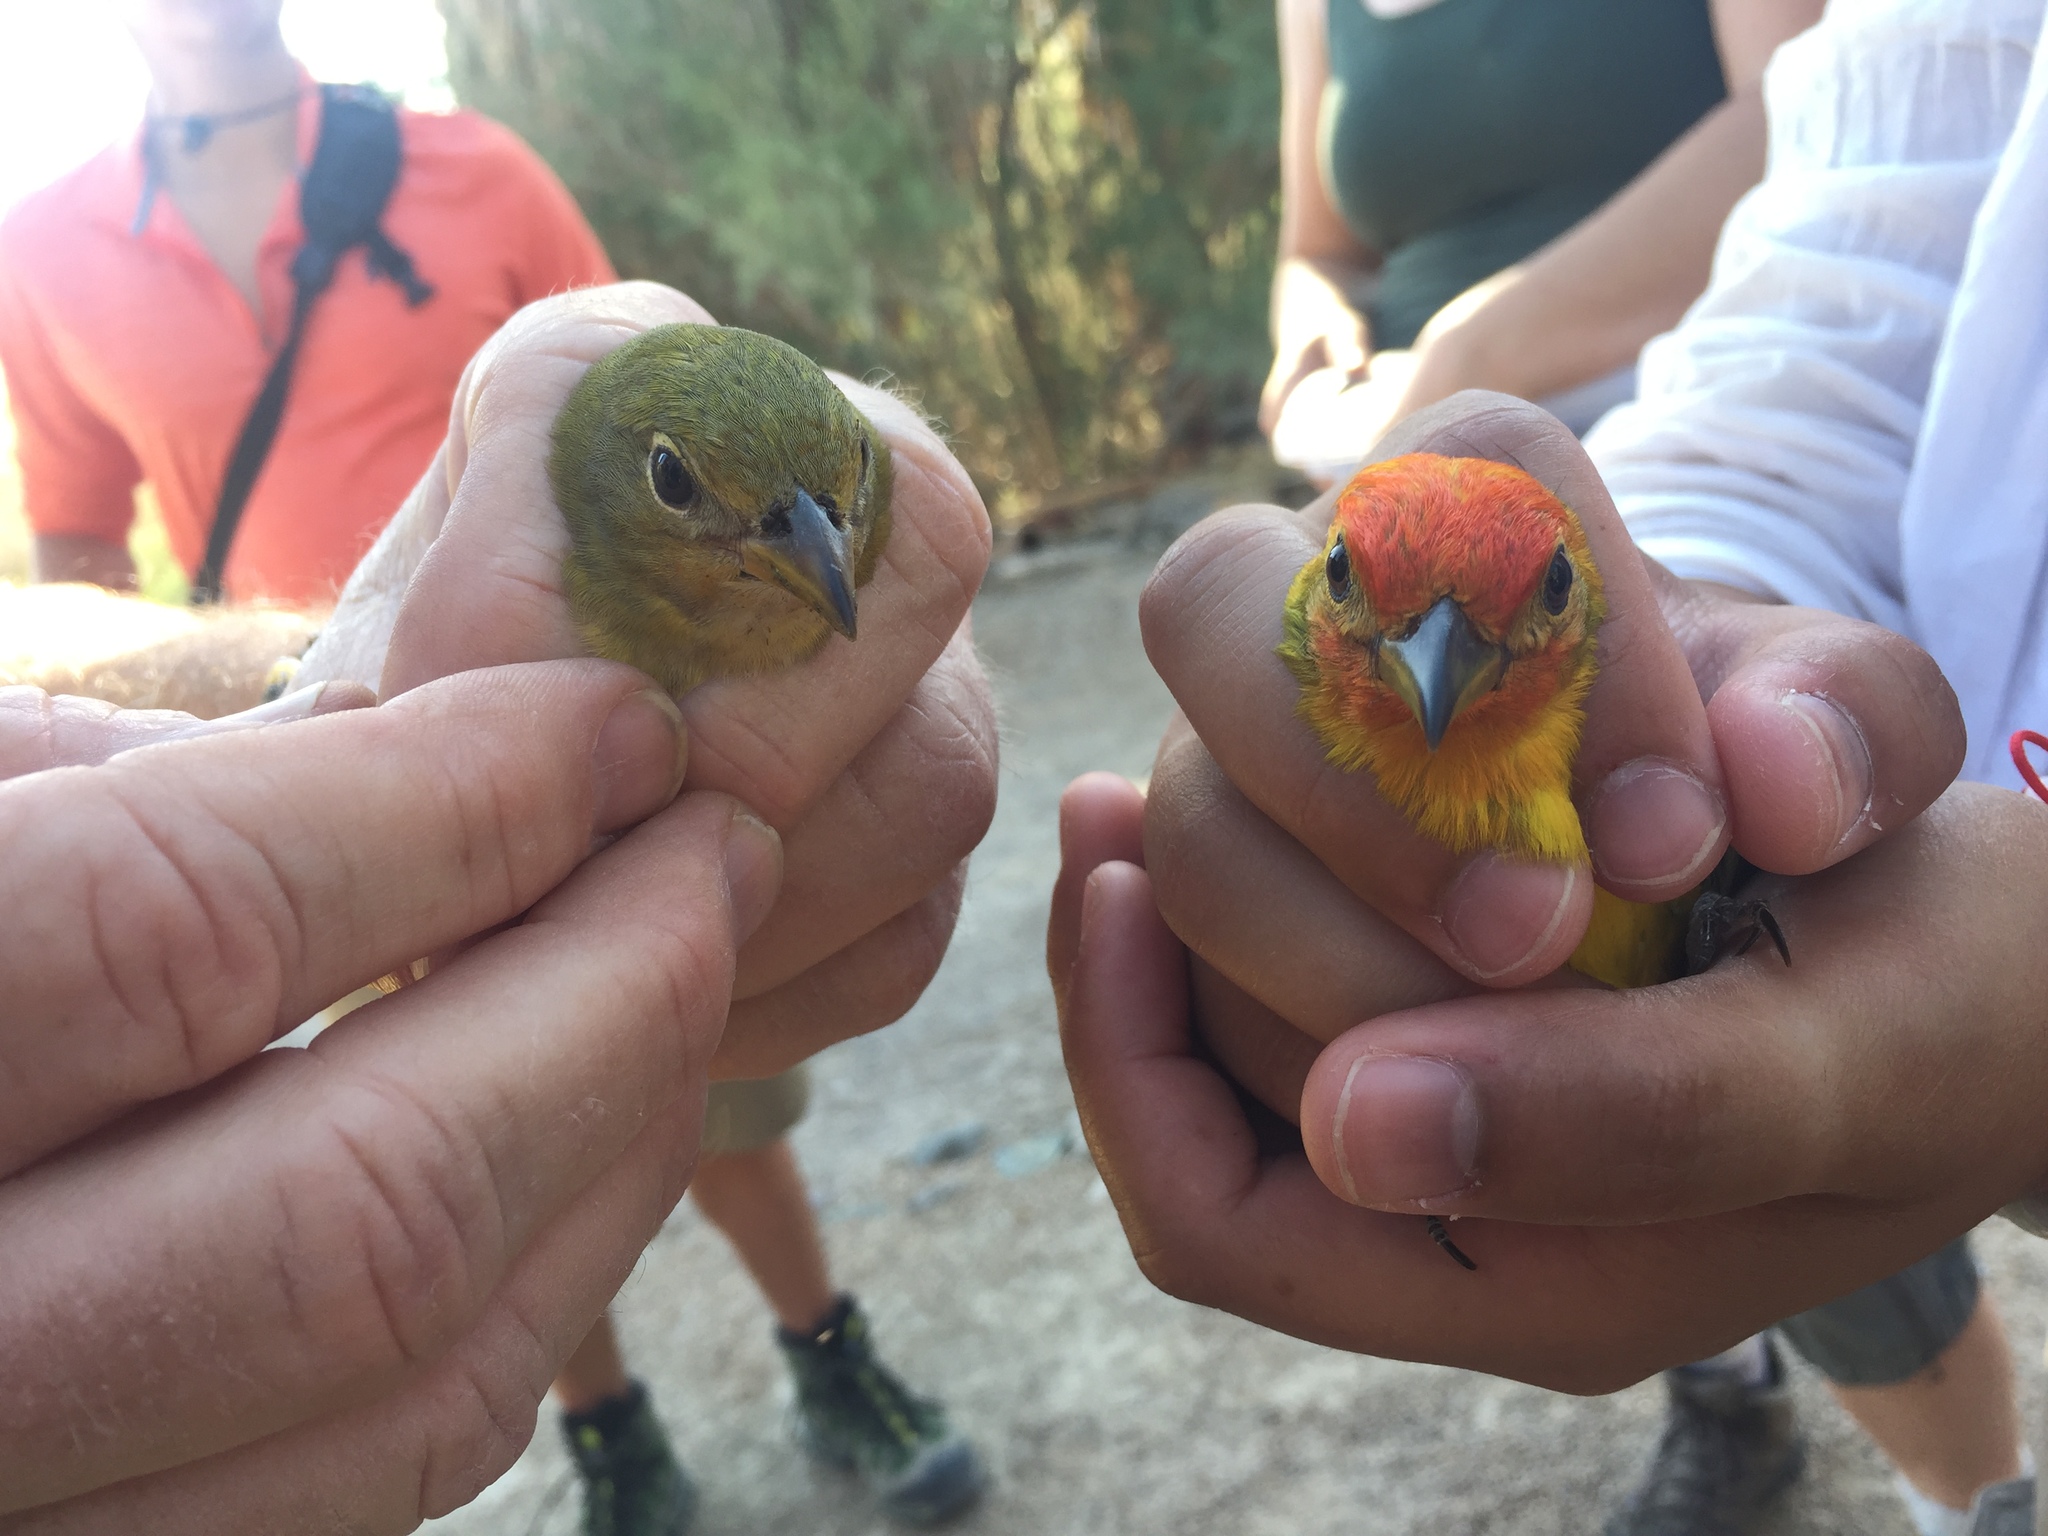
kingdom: Animalia
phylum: Chordata
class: Aves
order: Passeriformes
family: Cardinalidae
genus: Piranga
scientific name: Piranga ludoviciana
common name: Western tanager
